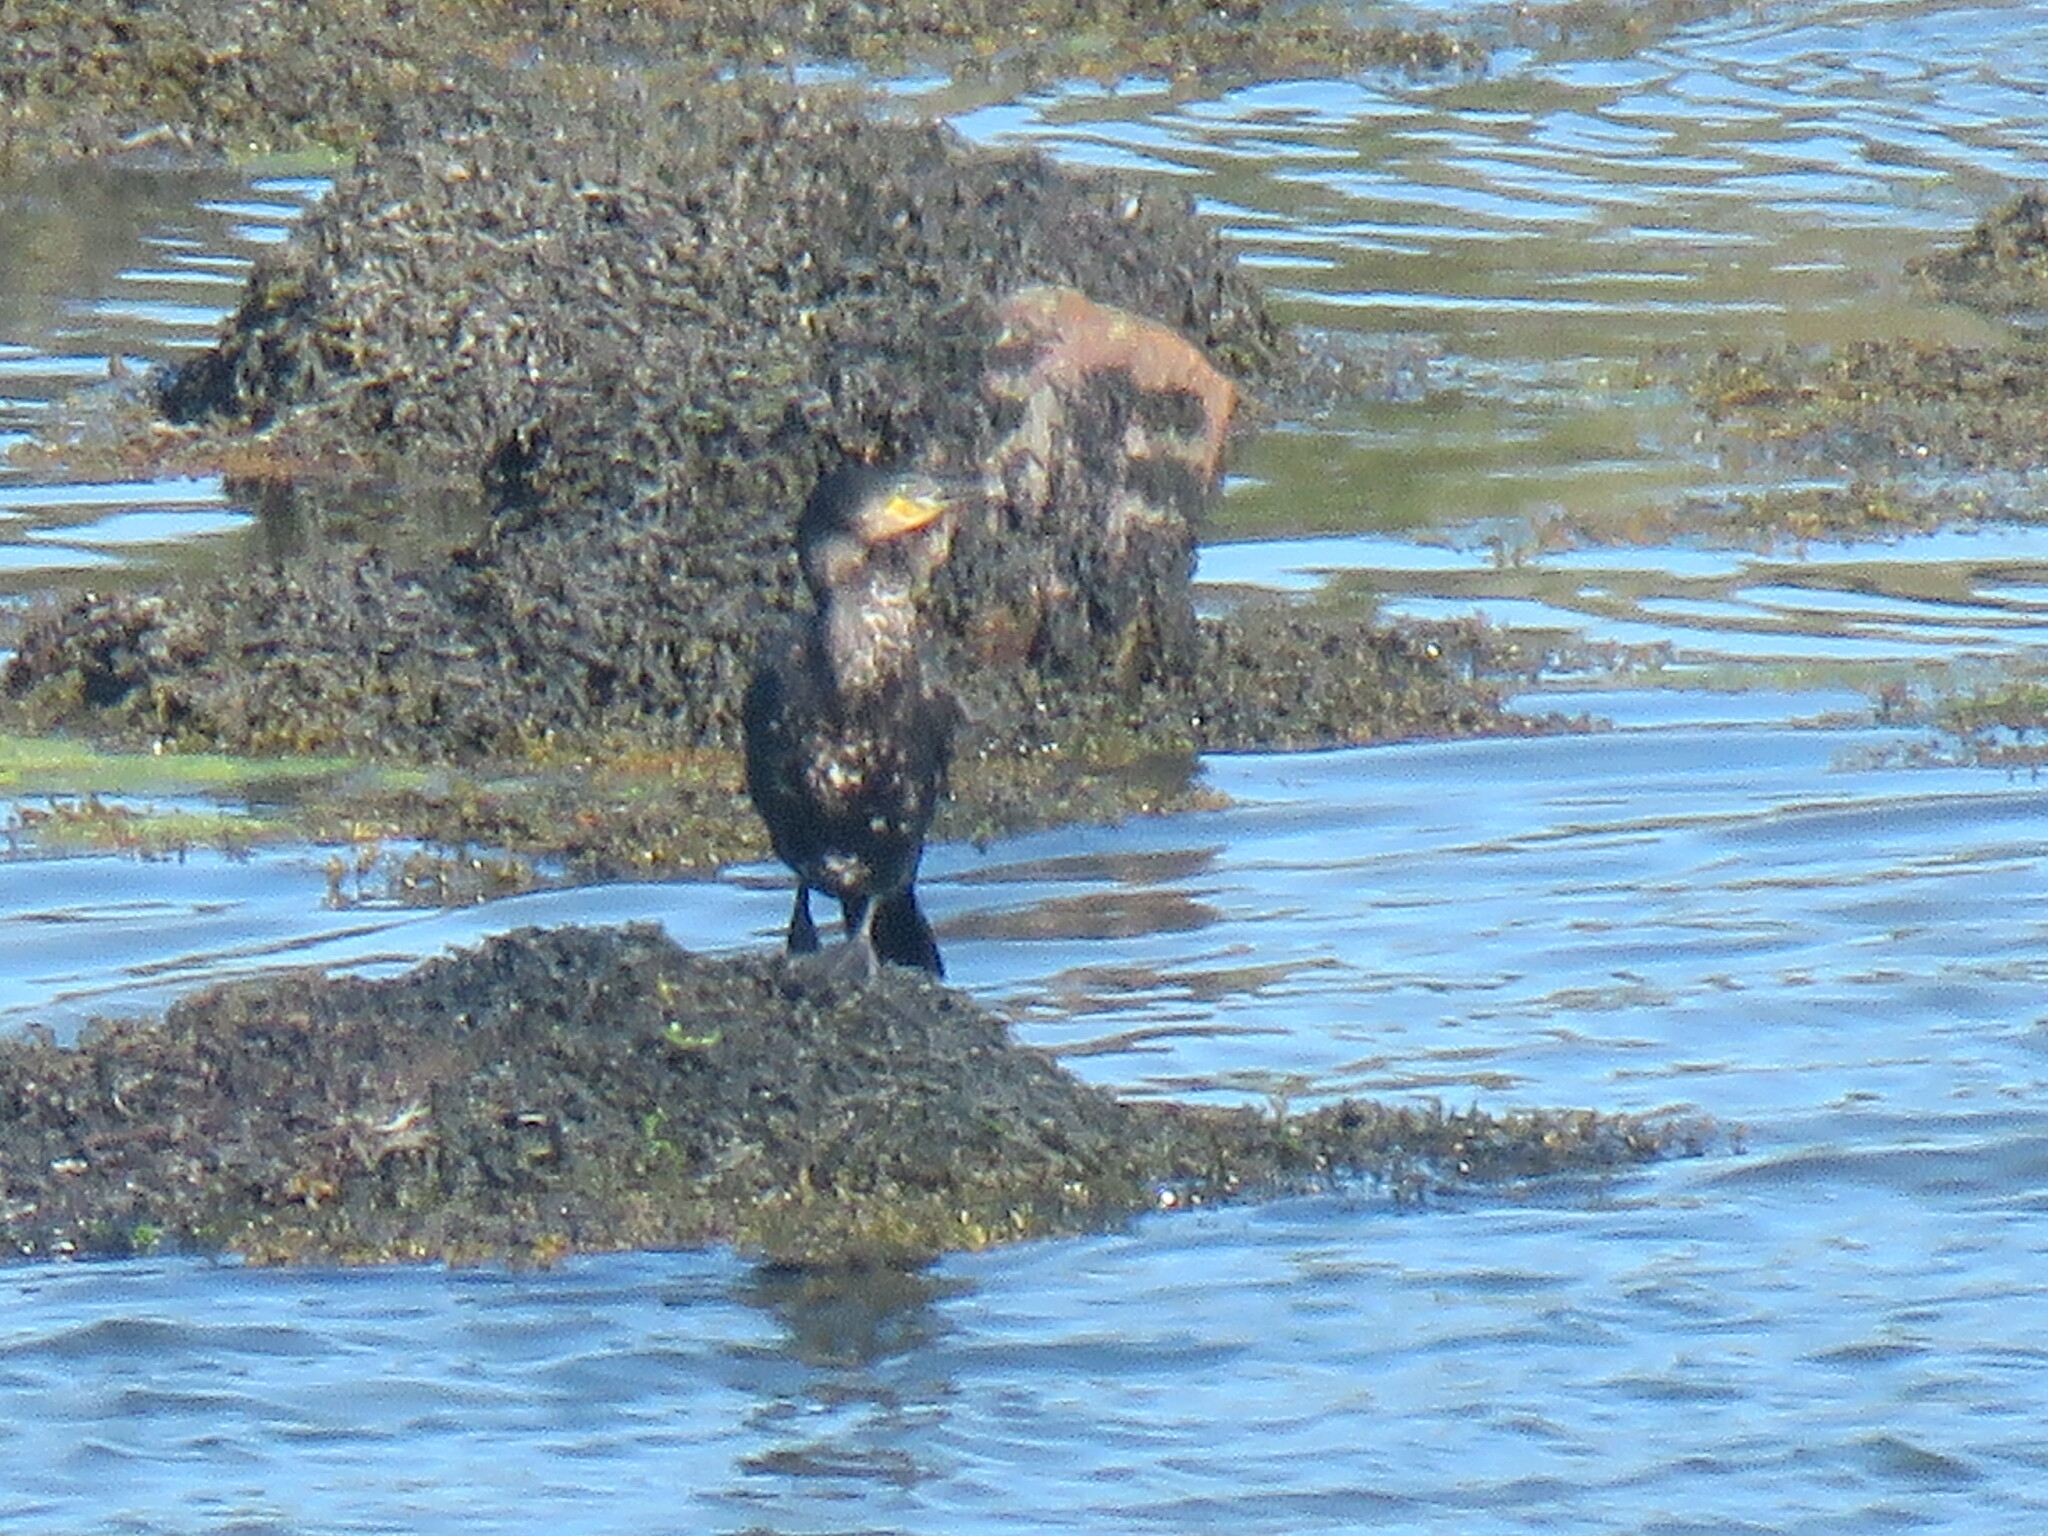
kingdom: Animalia
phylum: Chordata
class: Aves
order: Suliformes
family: Phalacrocoracidae
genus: Phalacrocorax
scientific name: Phalacrocorax carbo
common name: Great cormorant
